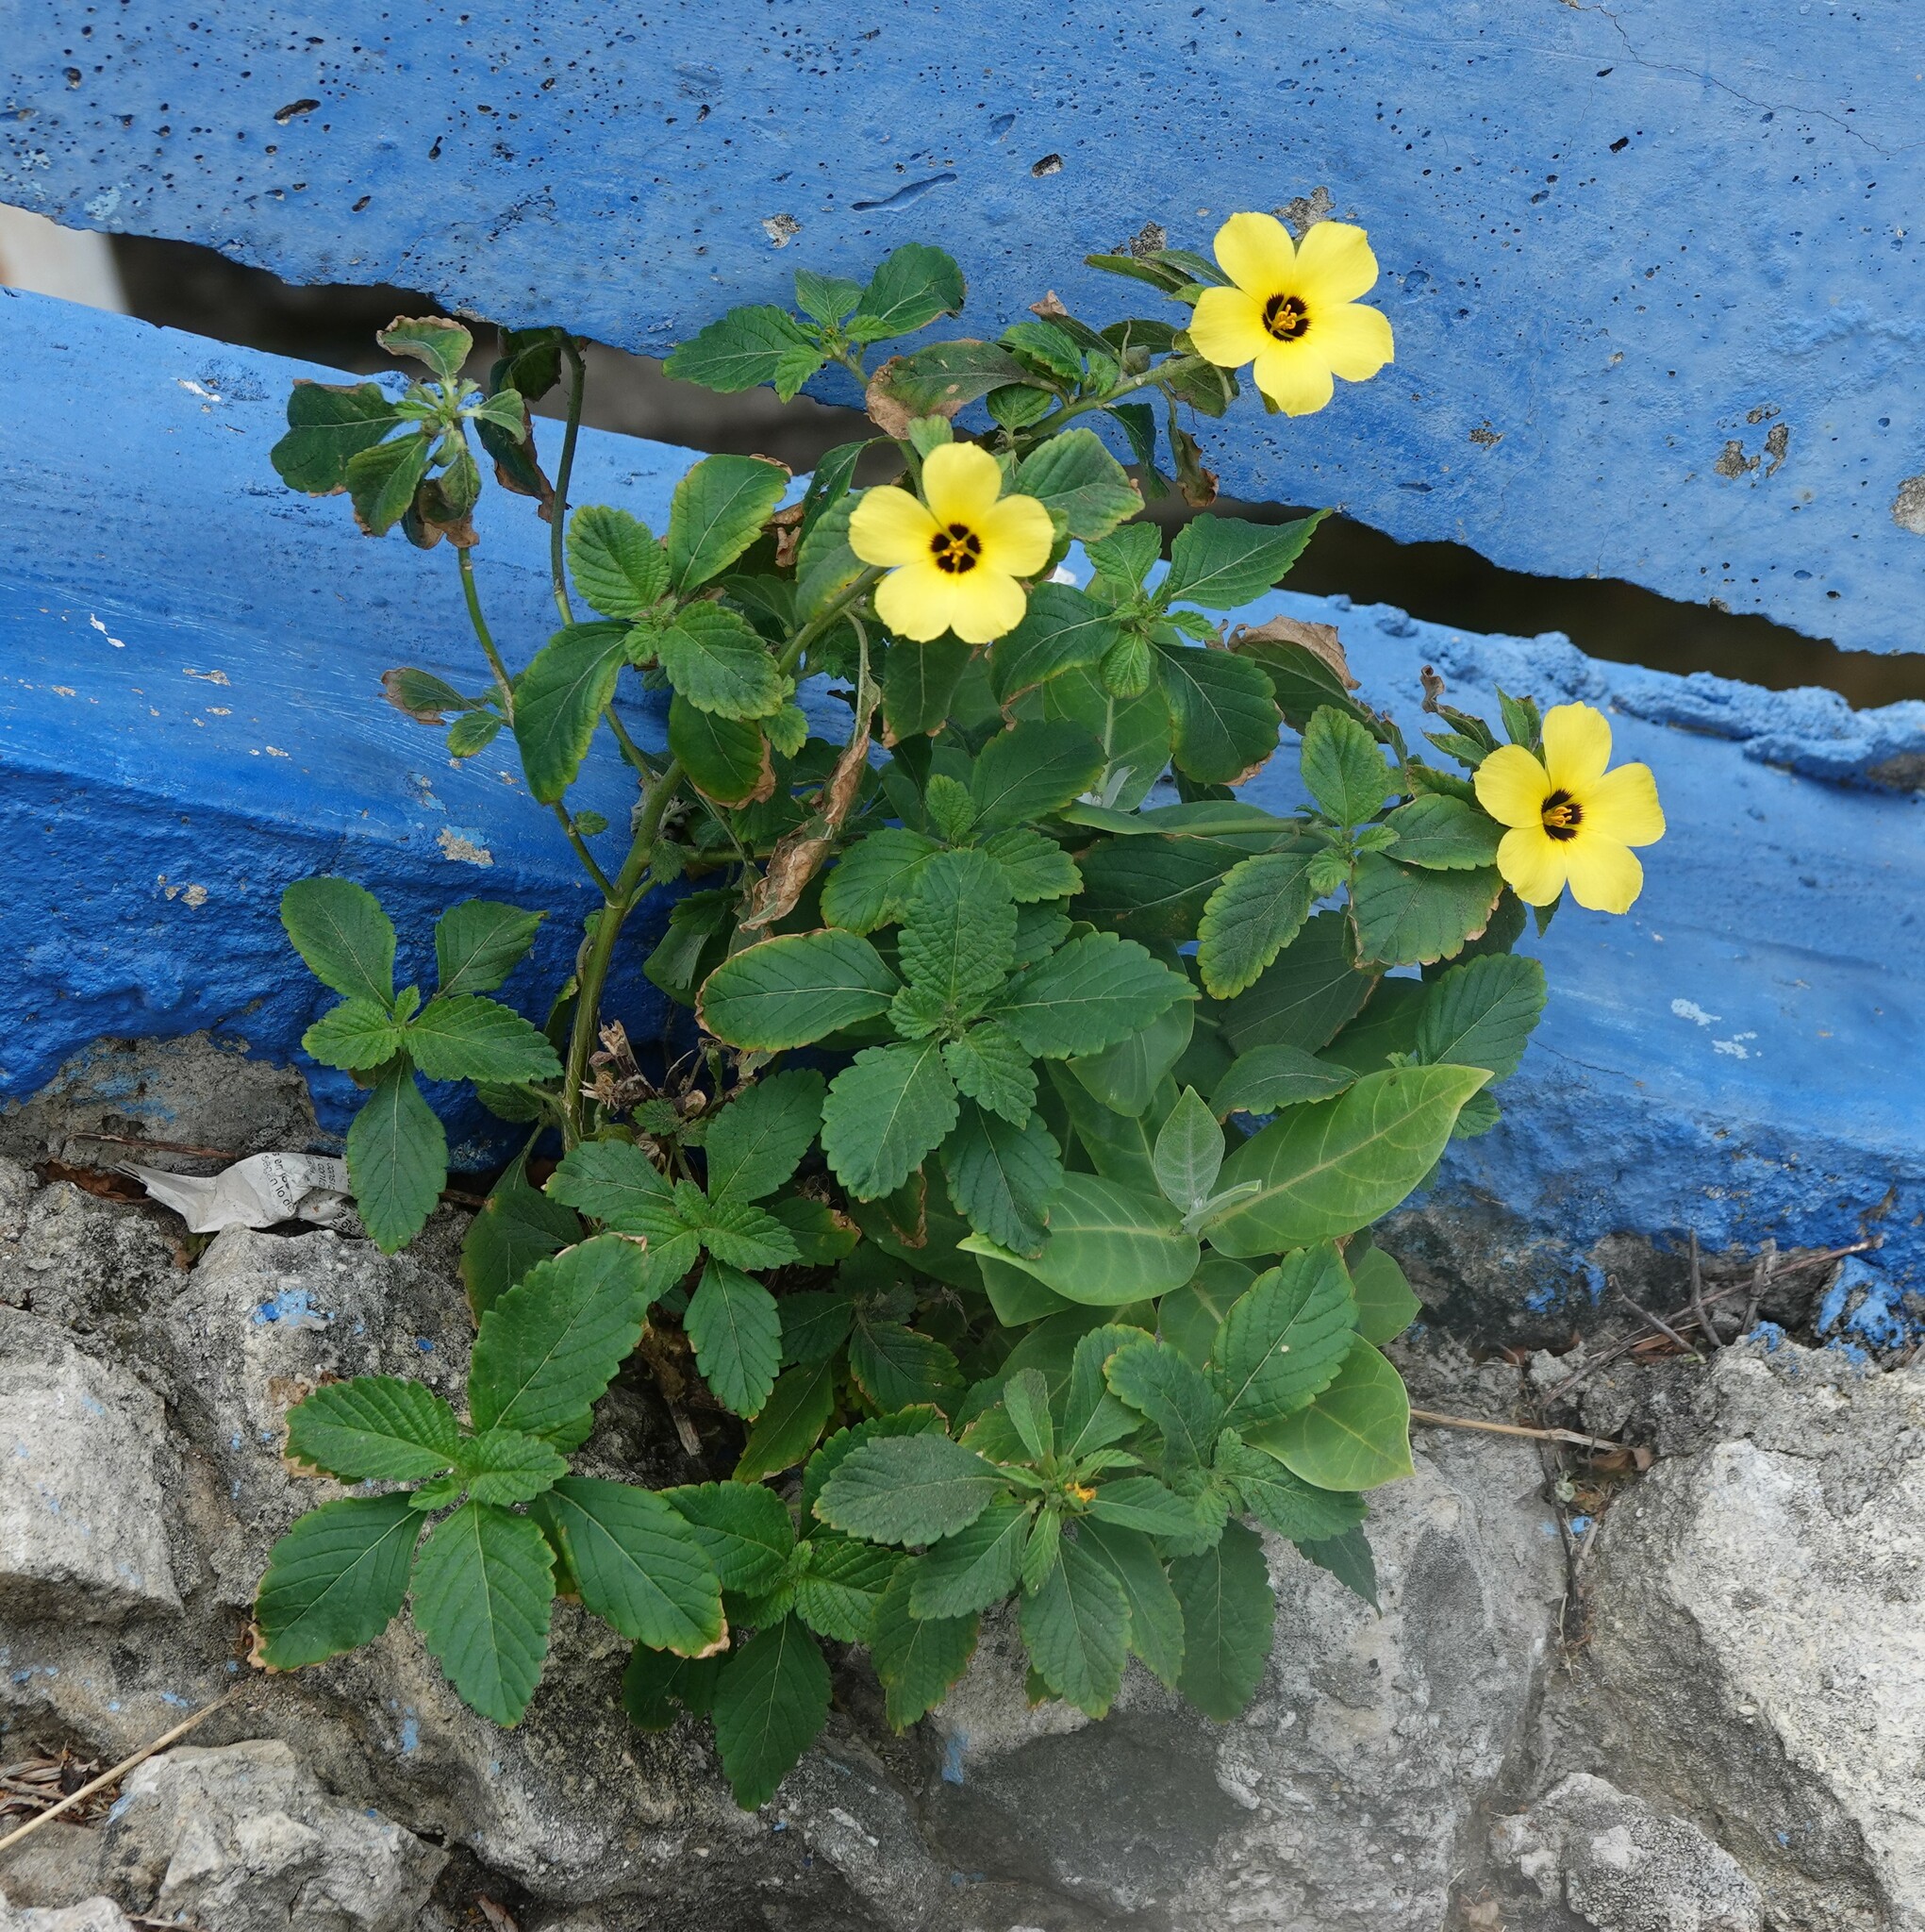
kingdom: Plantae
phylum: Tracheophyta
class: Magnoliopsida
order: Malpighiales
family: Turneraceae
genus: Turnera
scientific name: Turnera subulata
